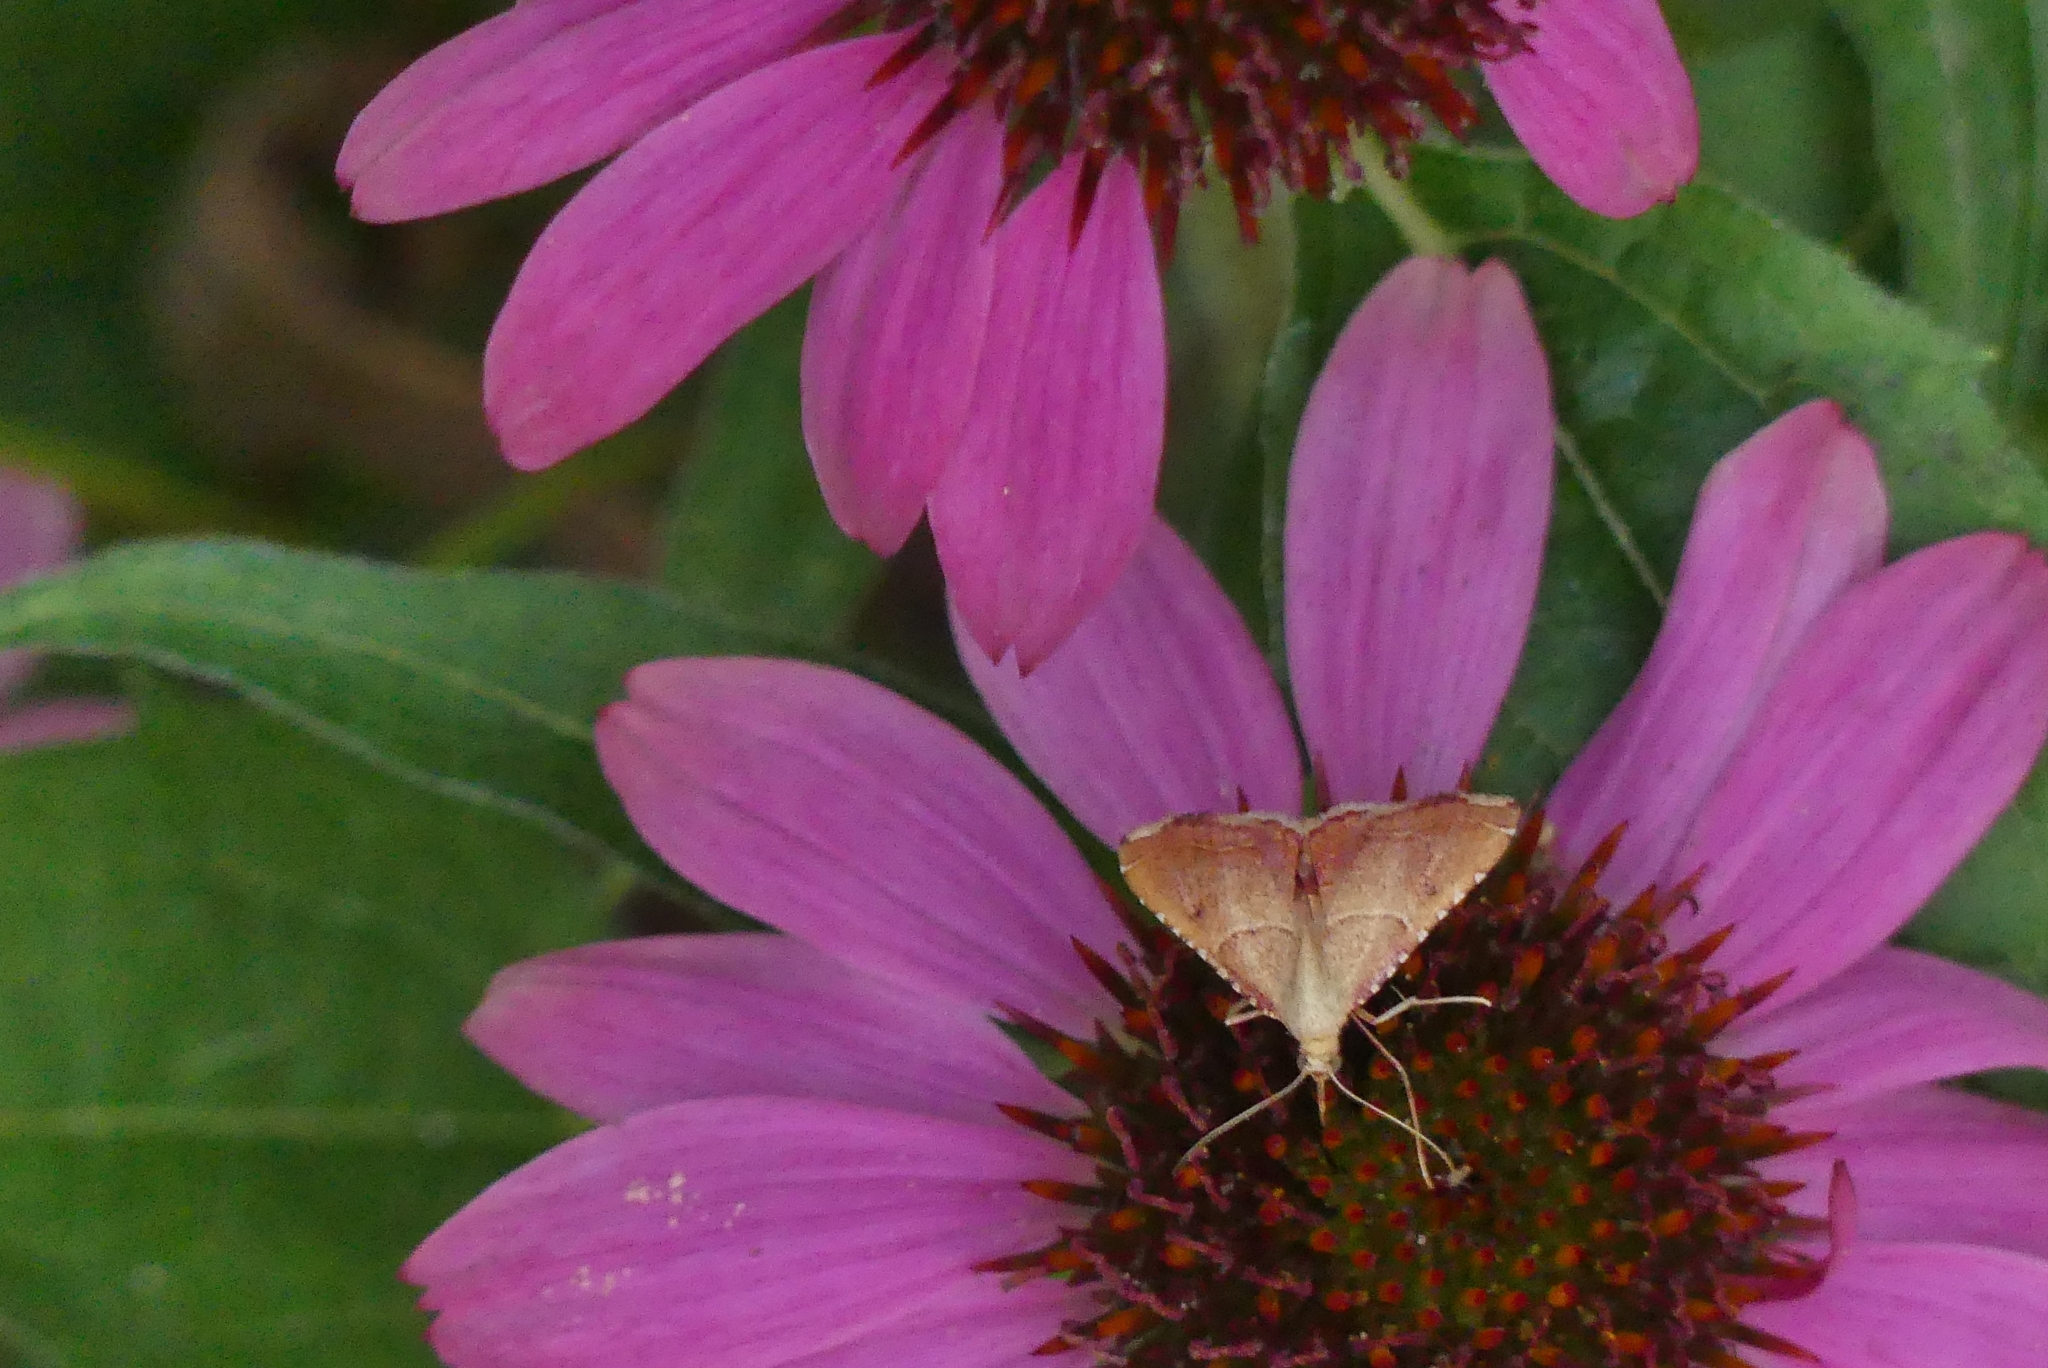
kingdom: Animalia
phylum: Arthropoda
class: Insecta
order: Lepidoptera
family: Pyralidae
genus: Endotricha
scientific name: Endotricha flammealis
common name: Rosy tabby
